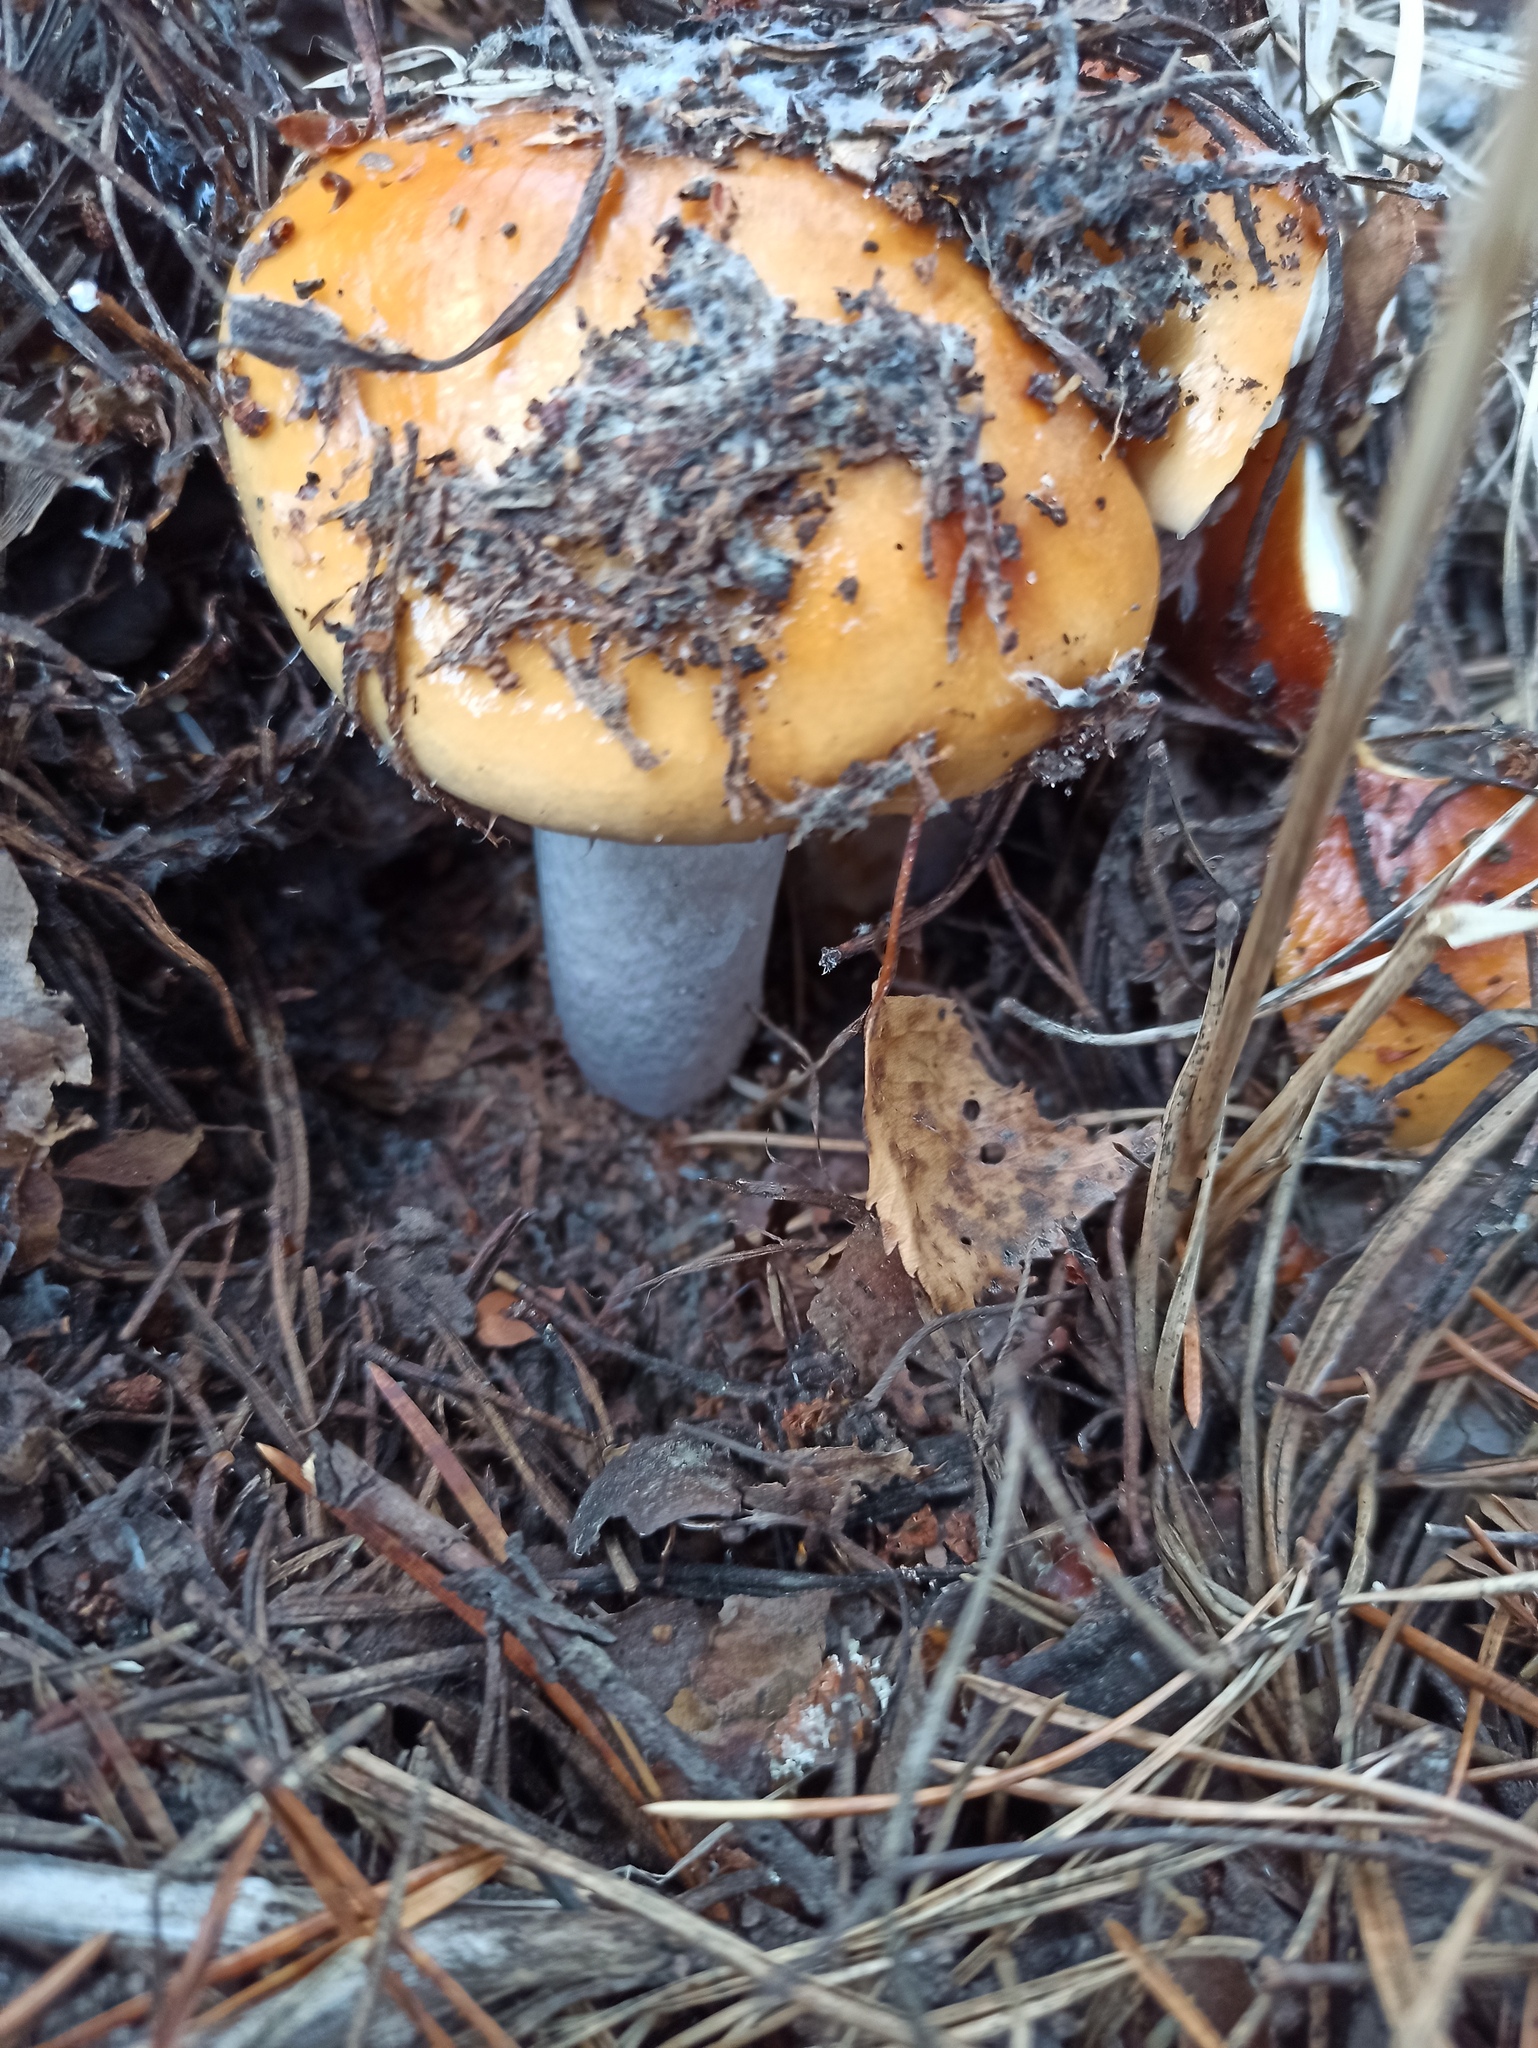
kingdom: Fungi
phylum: Basidiomycota
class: Agaricomycetes
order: Agaricales
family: Cortinariaceae
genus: Cortinarius
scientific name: Cortinarius mucosus
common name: Orange webcap
